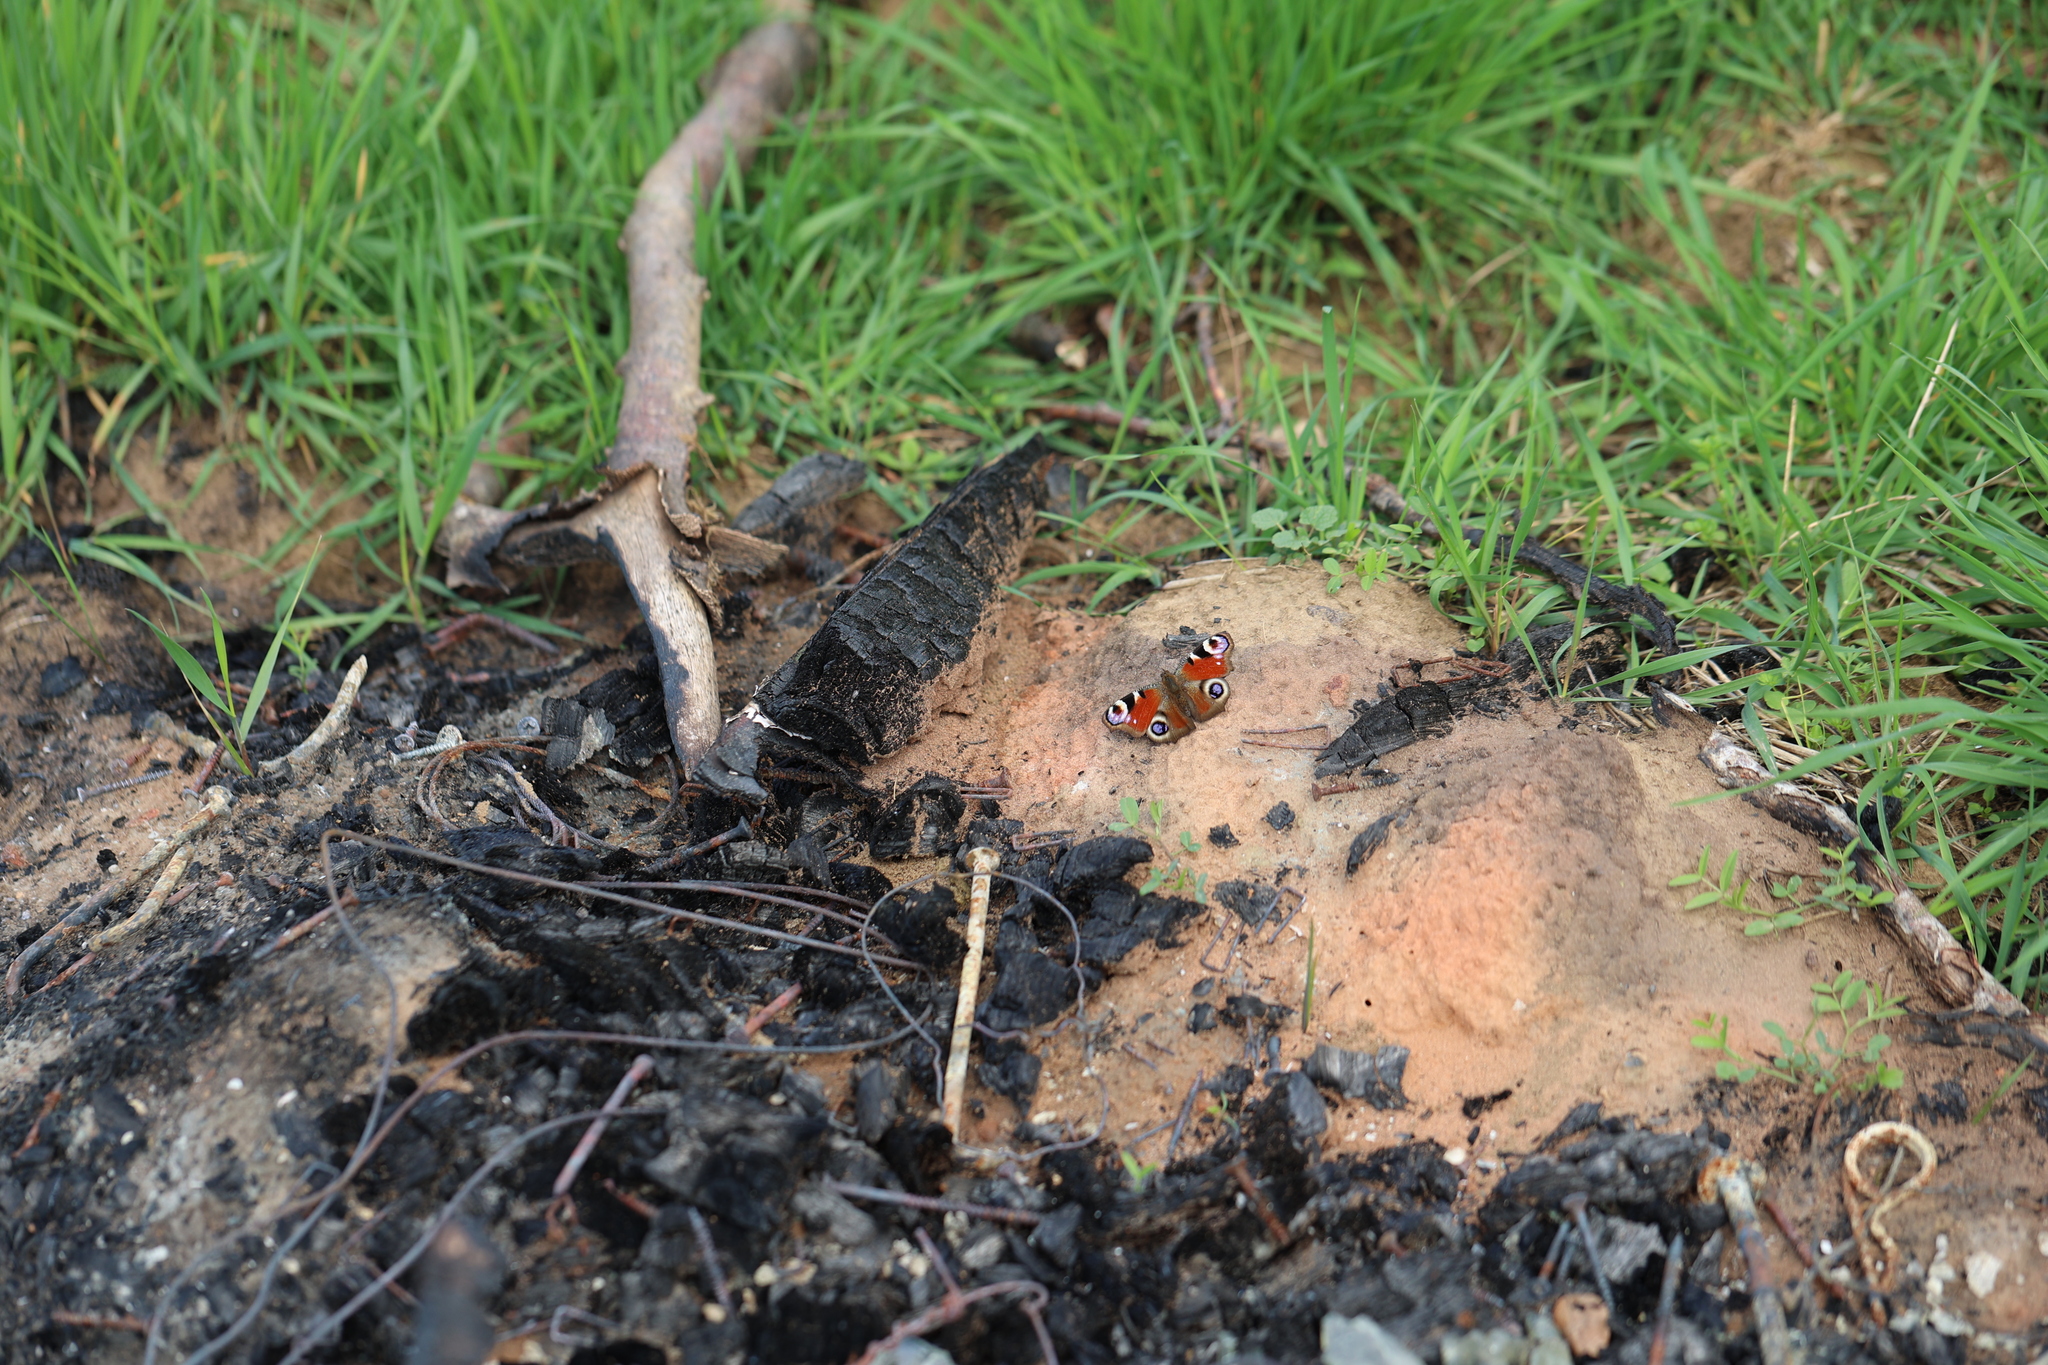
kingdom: Animalia
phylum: Arthropoda
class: Insecta
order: Lepidoptera
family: Nymphalidae
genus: Aglais
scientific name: Aglais io
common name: Peacock
